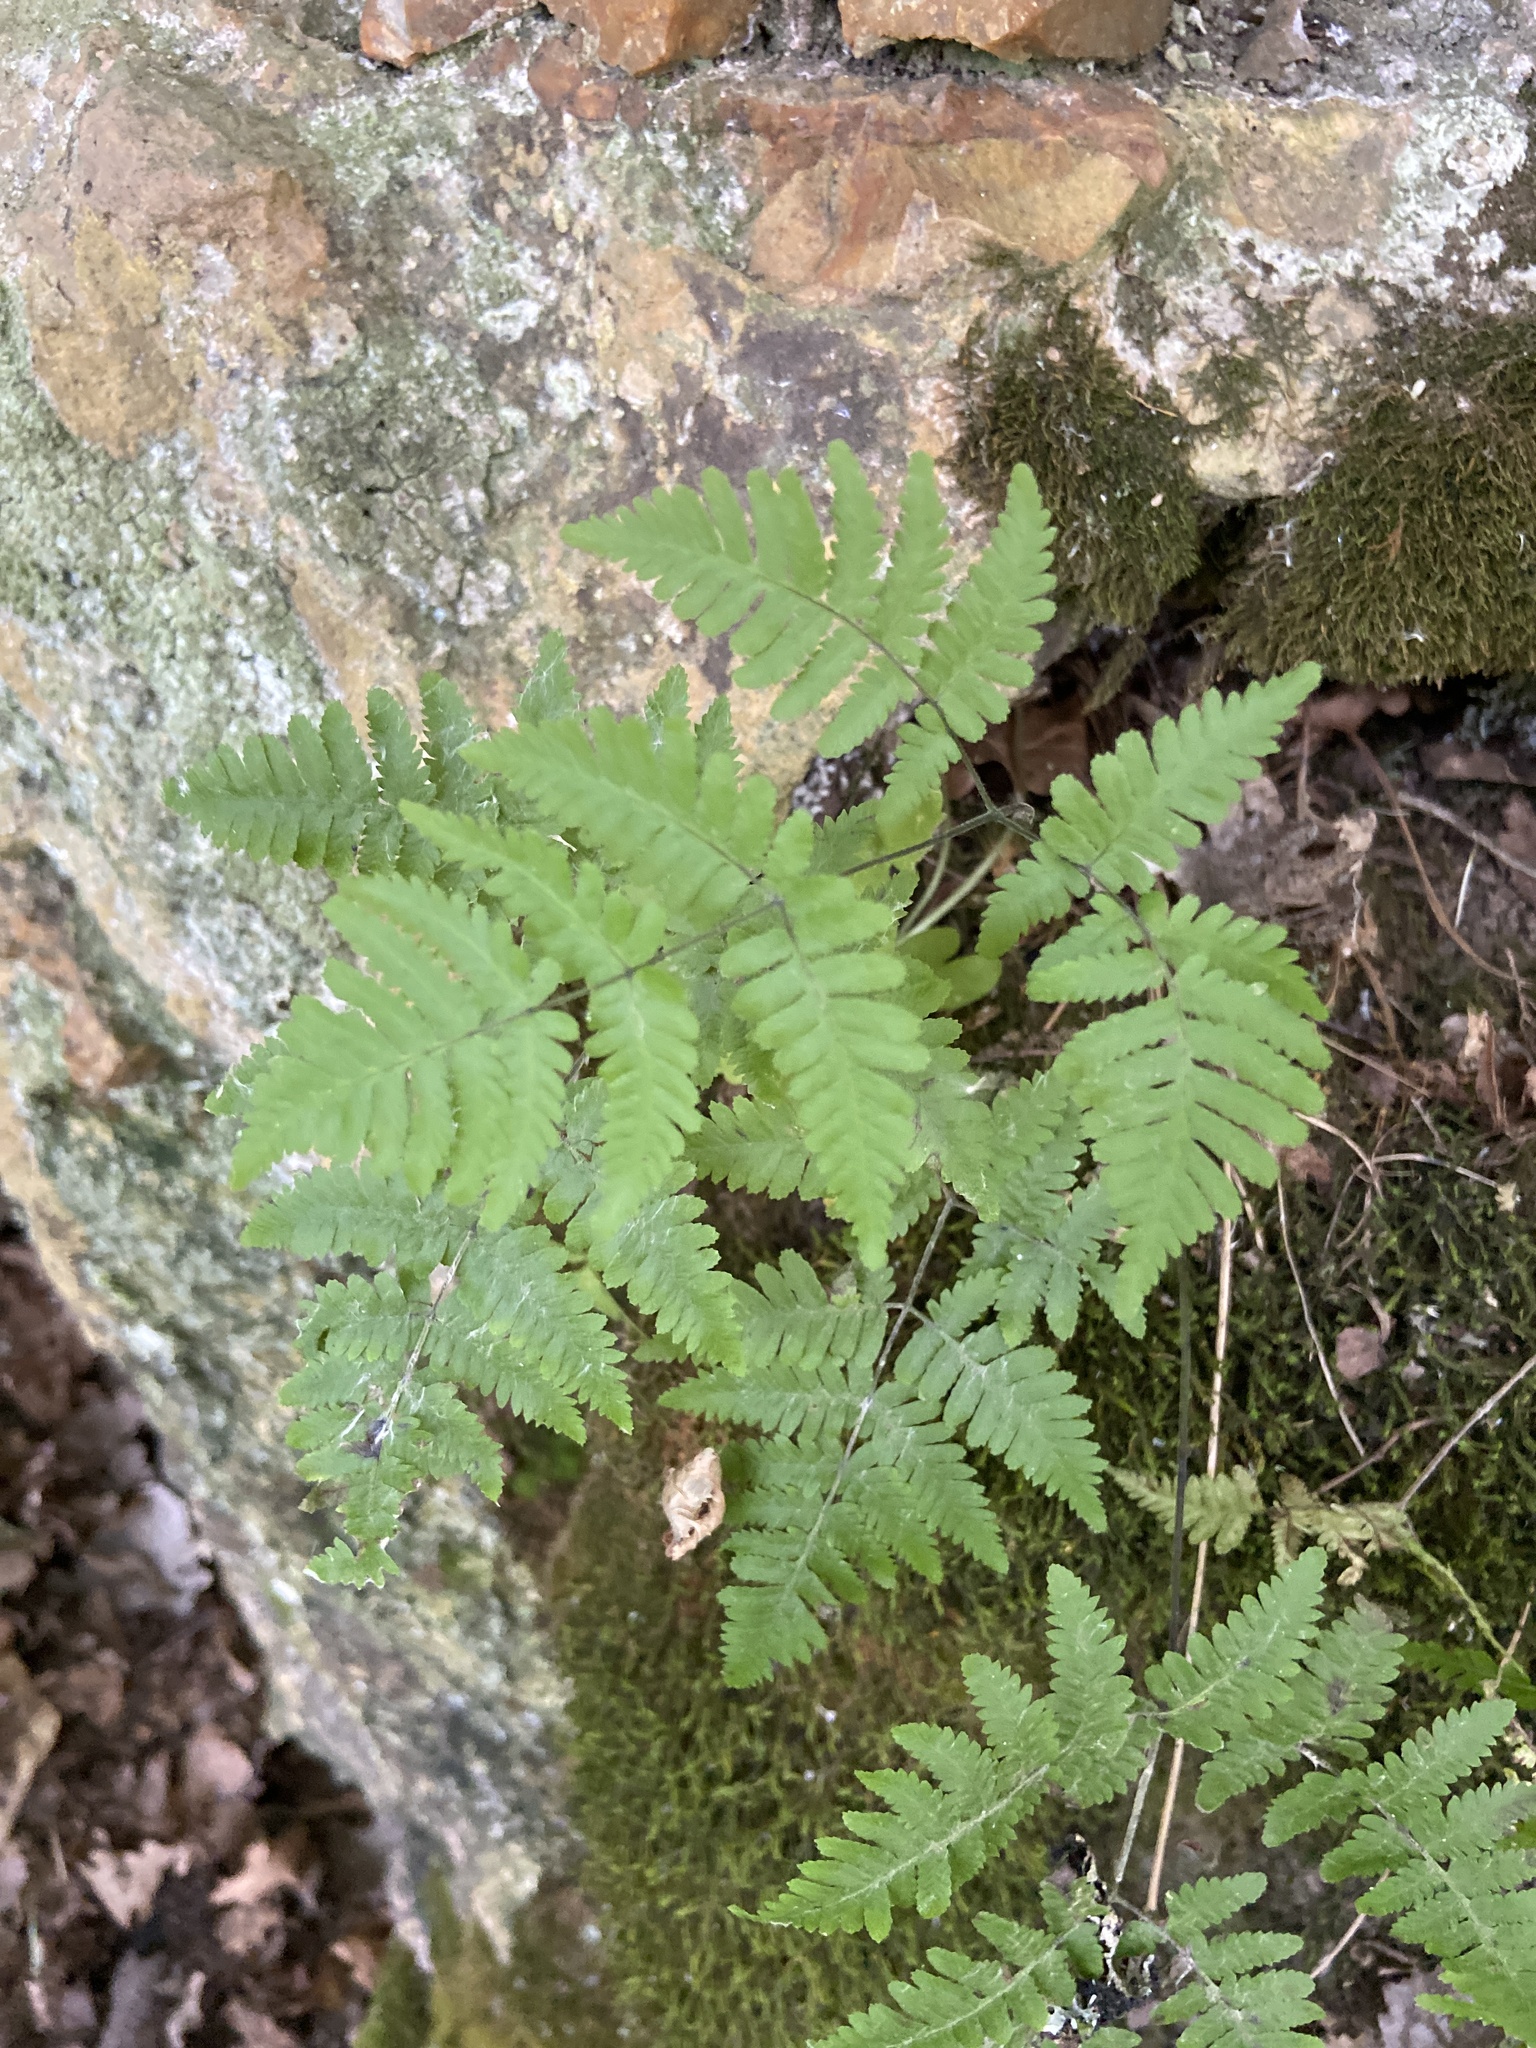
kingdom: Plantae
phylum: Tracheophyta
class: Polypodiopsida
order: Polypodiales
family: Cystopteridaceae
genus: Gymnocarpium
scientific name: Gymnocarpium robertianum
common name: Limestone fern
